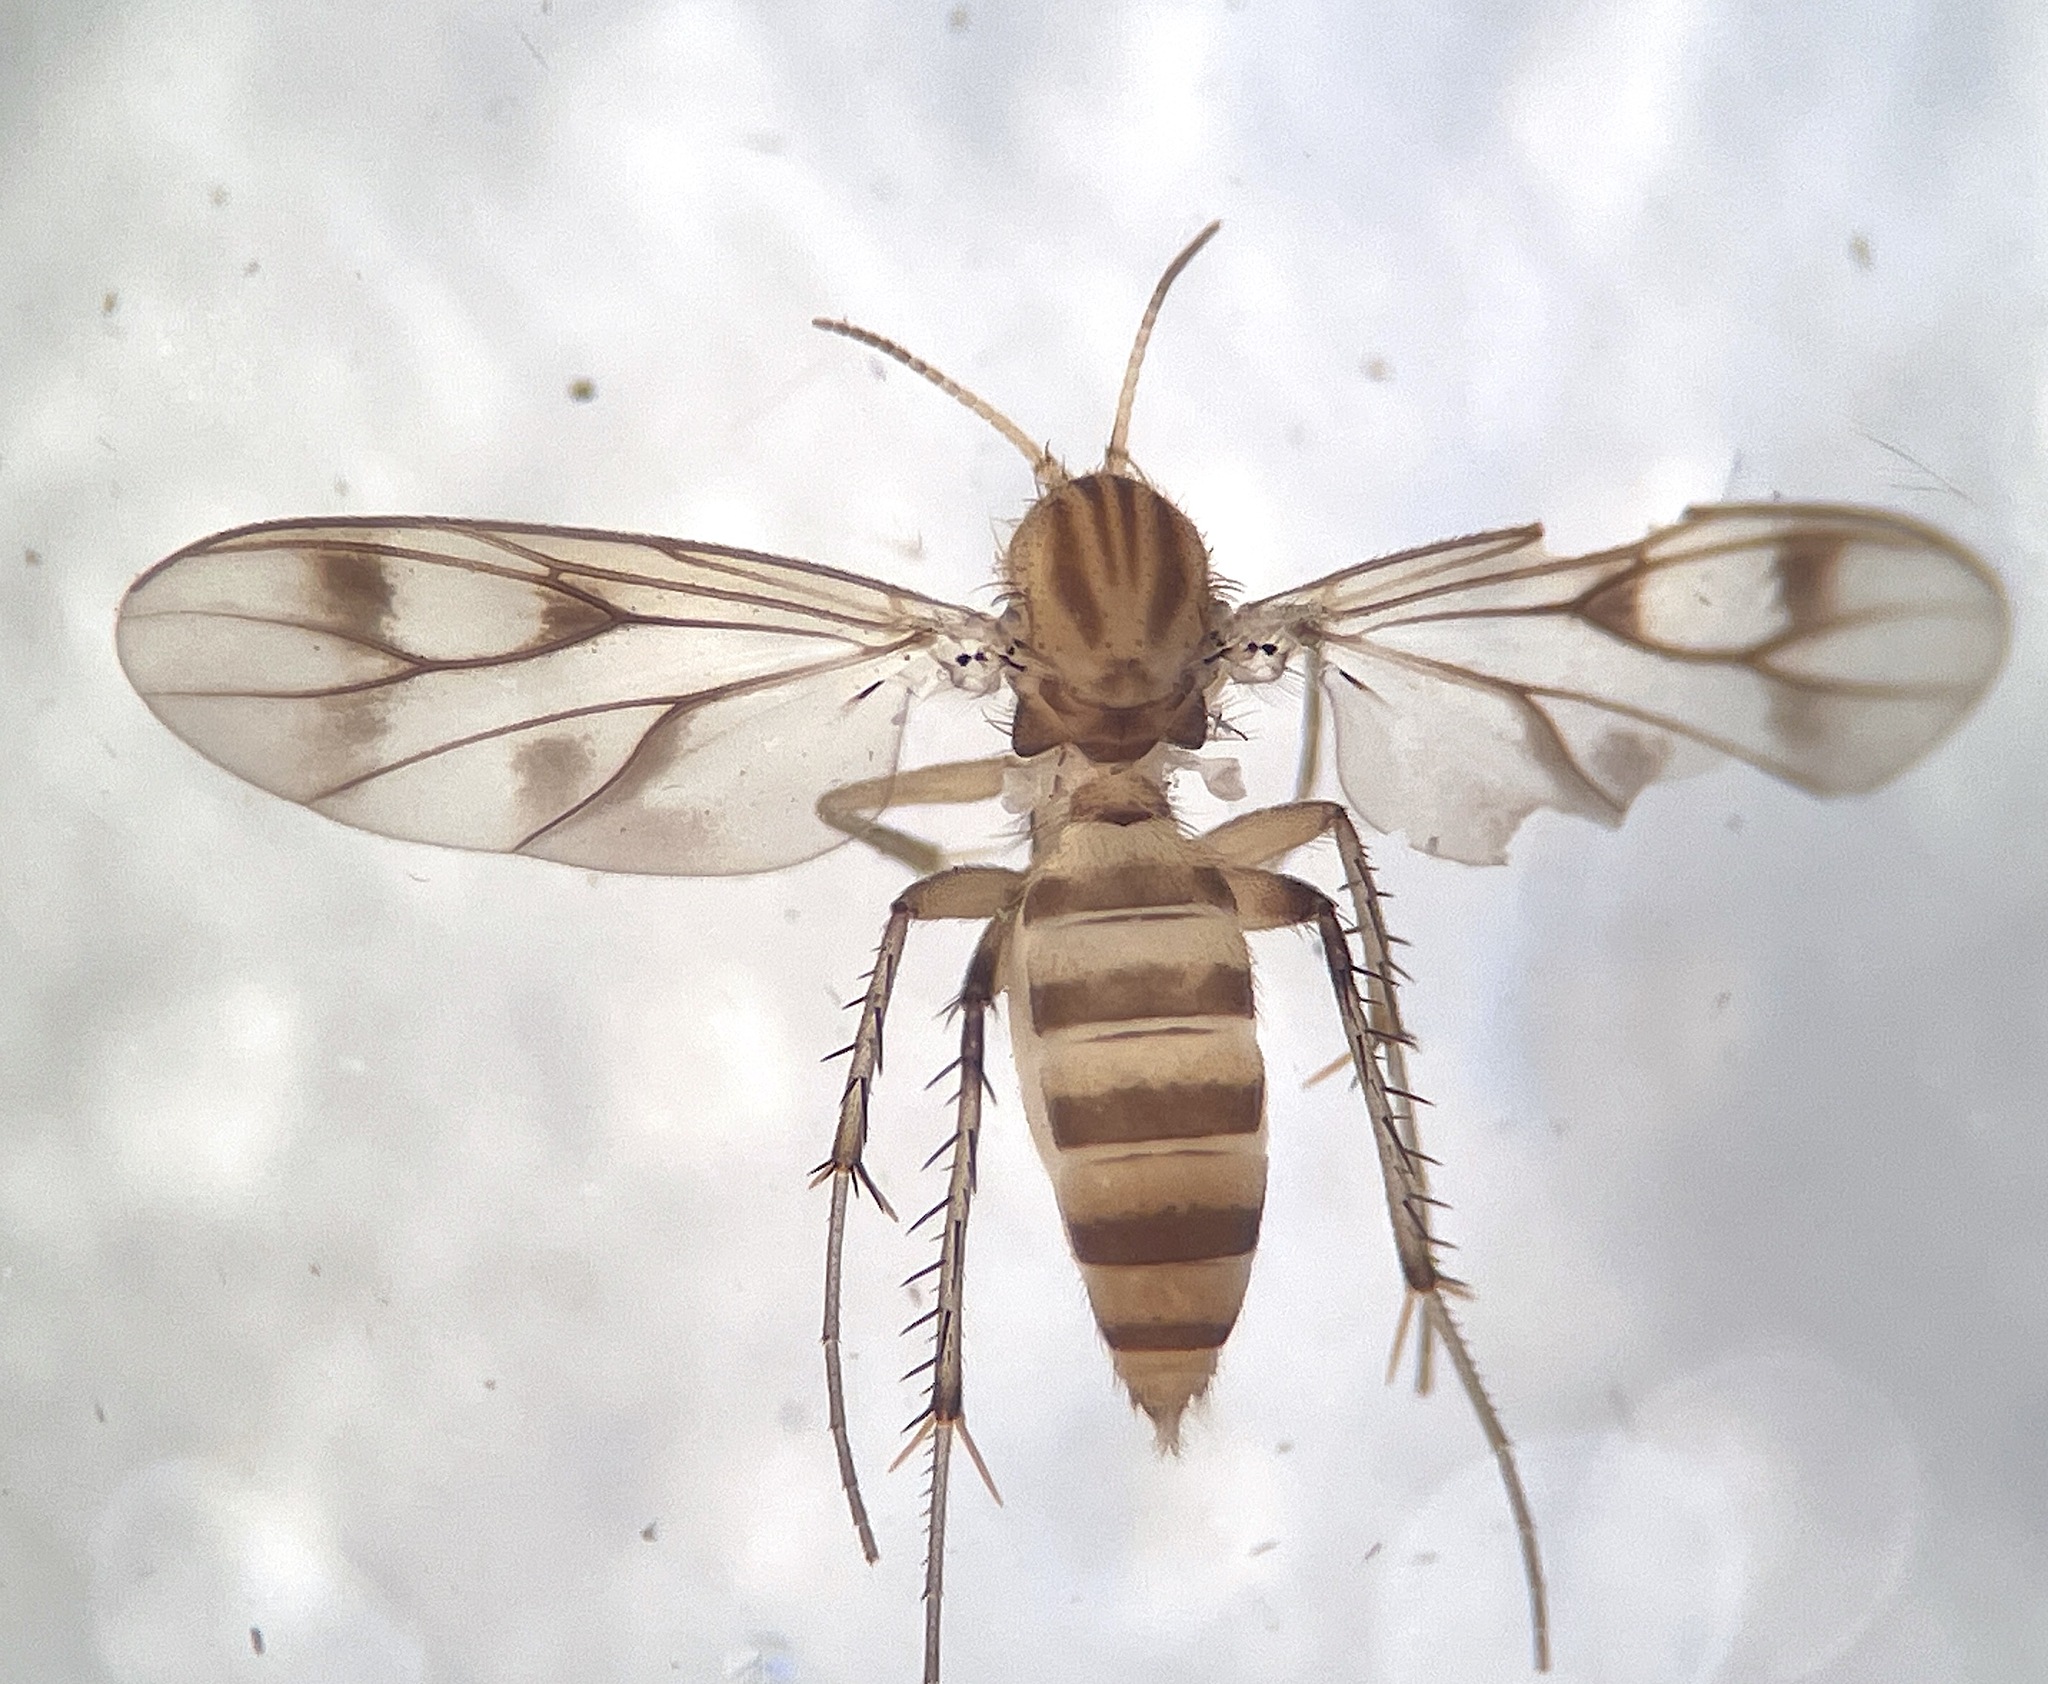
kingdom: Animalia
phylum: Arthropoda
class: Insecta
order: Diptera
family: Mycetophilidae
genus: Anomalomyia
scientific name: Anomalomyia guttata
